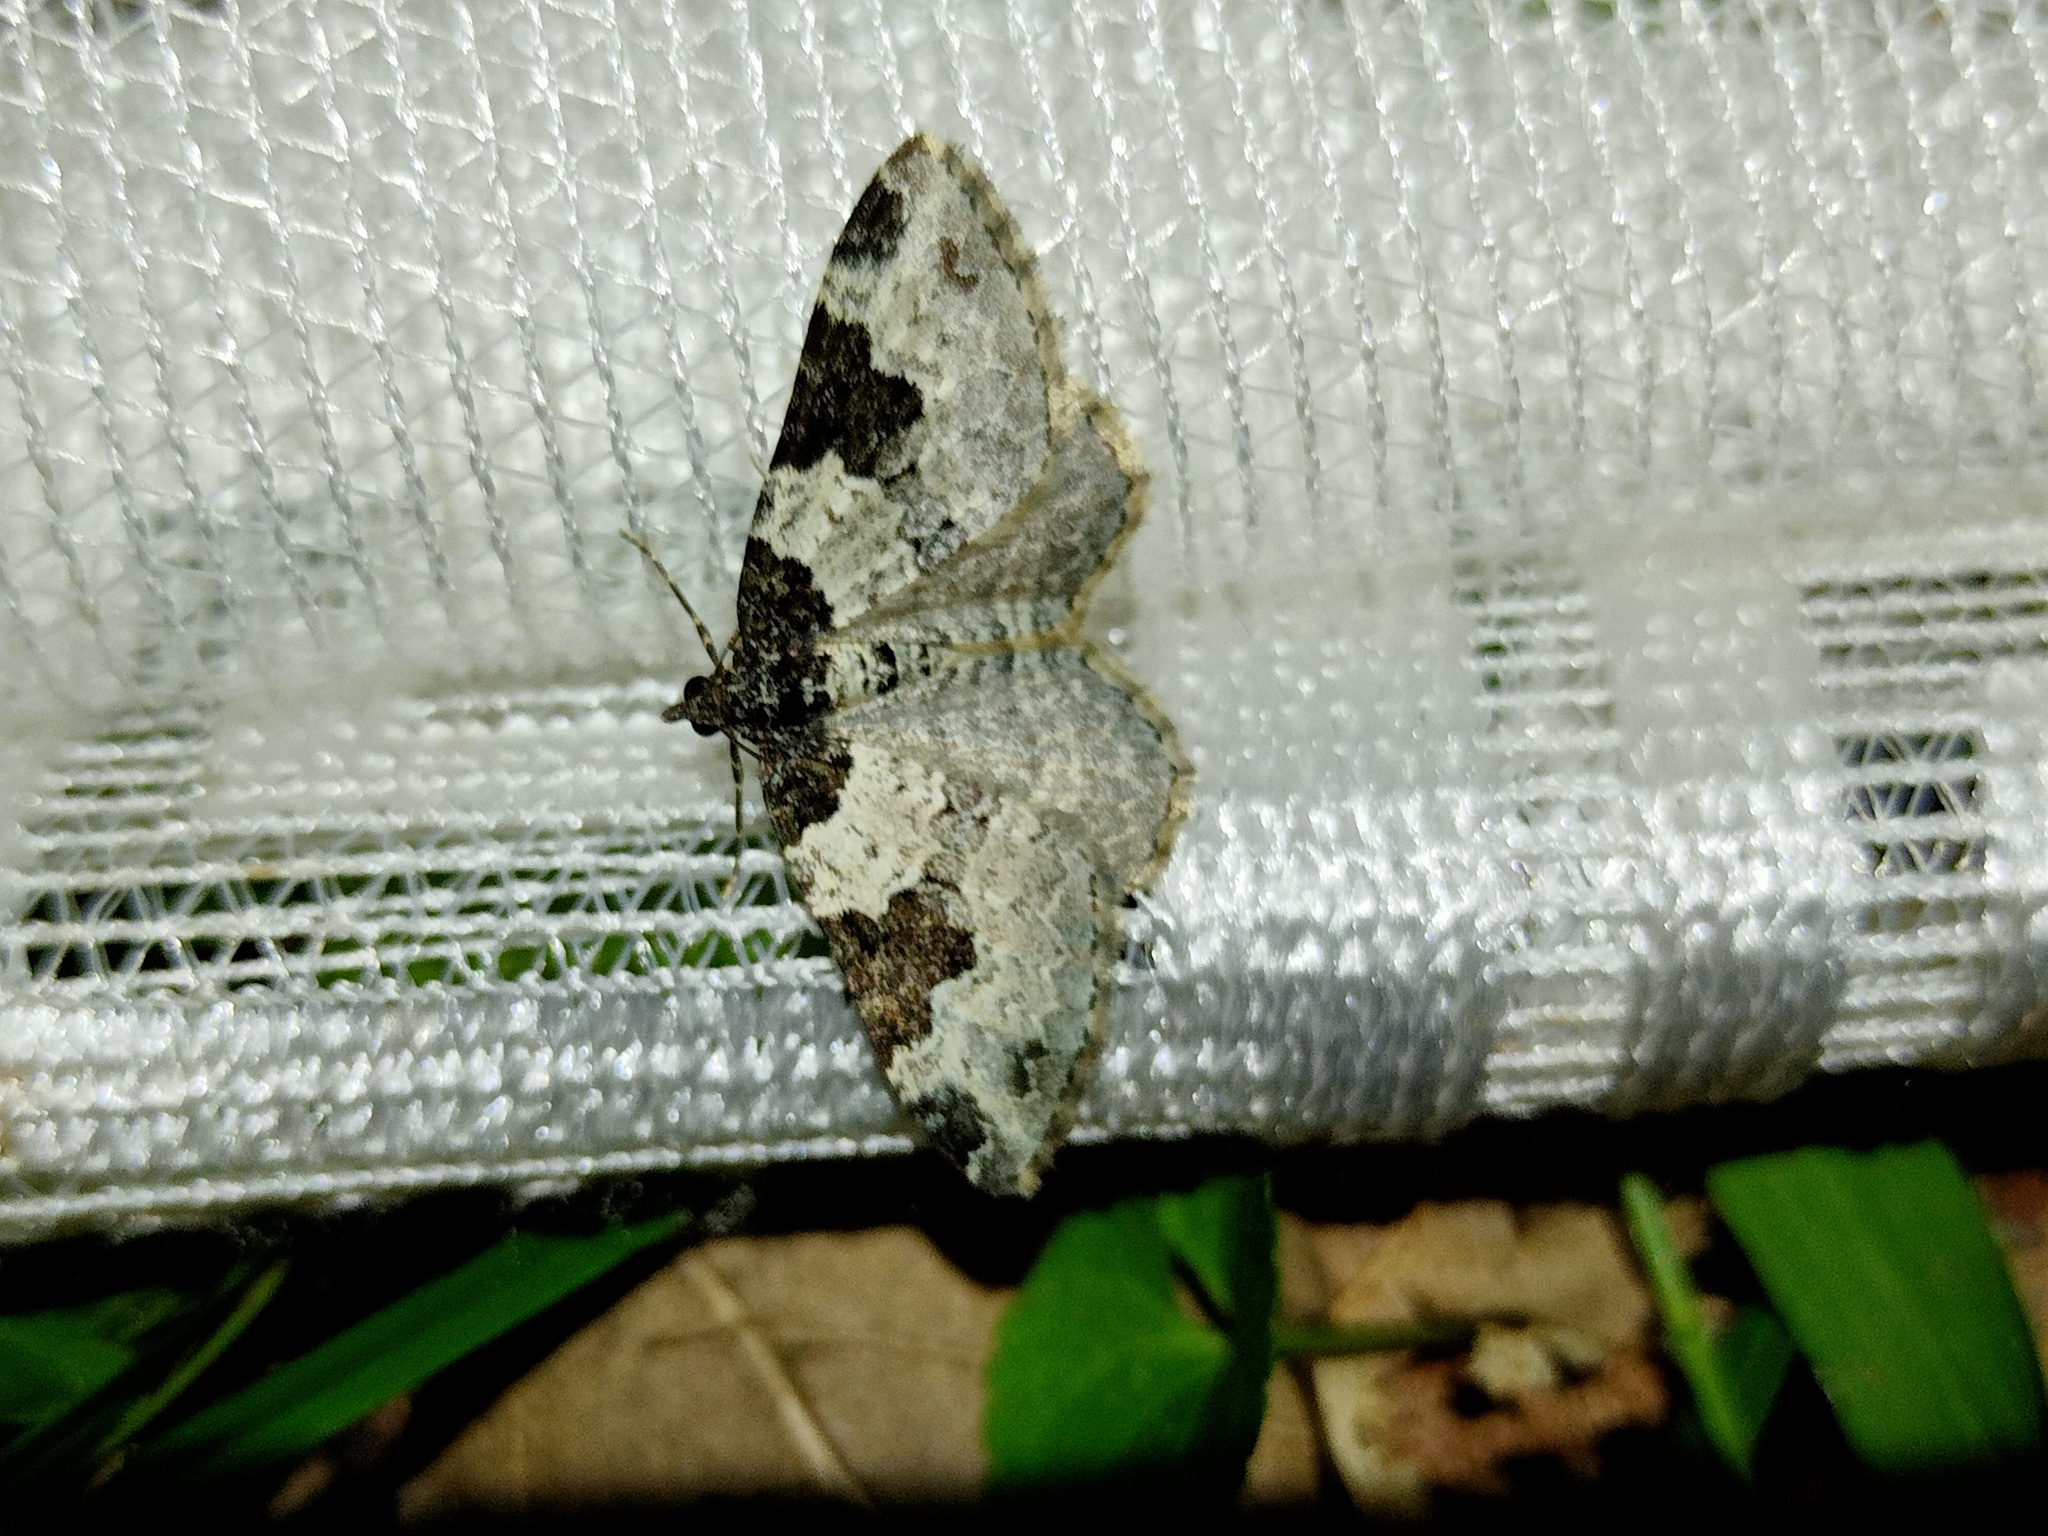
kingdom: Animalia
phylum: Arthropoda
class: Insecta
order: Lepidoptera
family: Geometridae
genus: Xanthorhoe
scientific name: Xanthorhoe fluctuata
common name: Garden carpet
